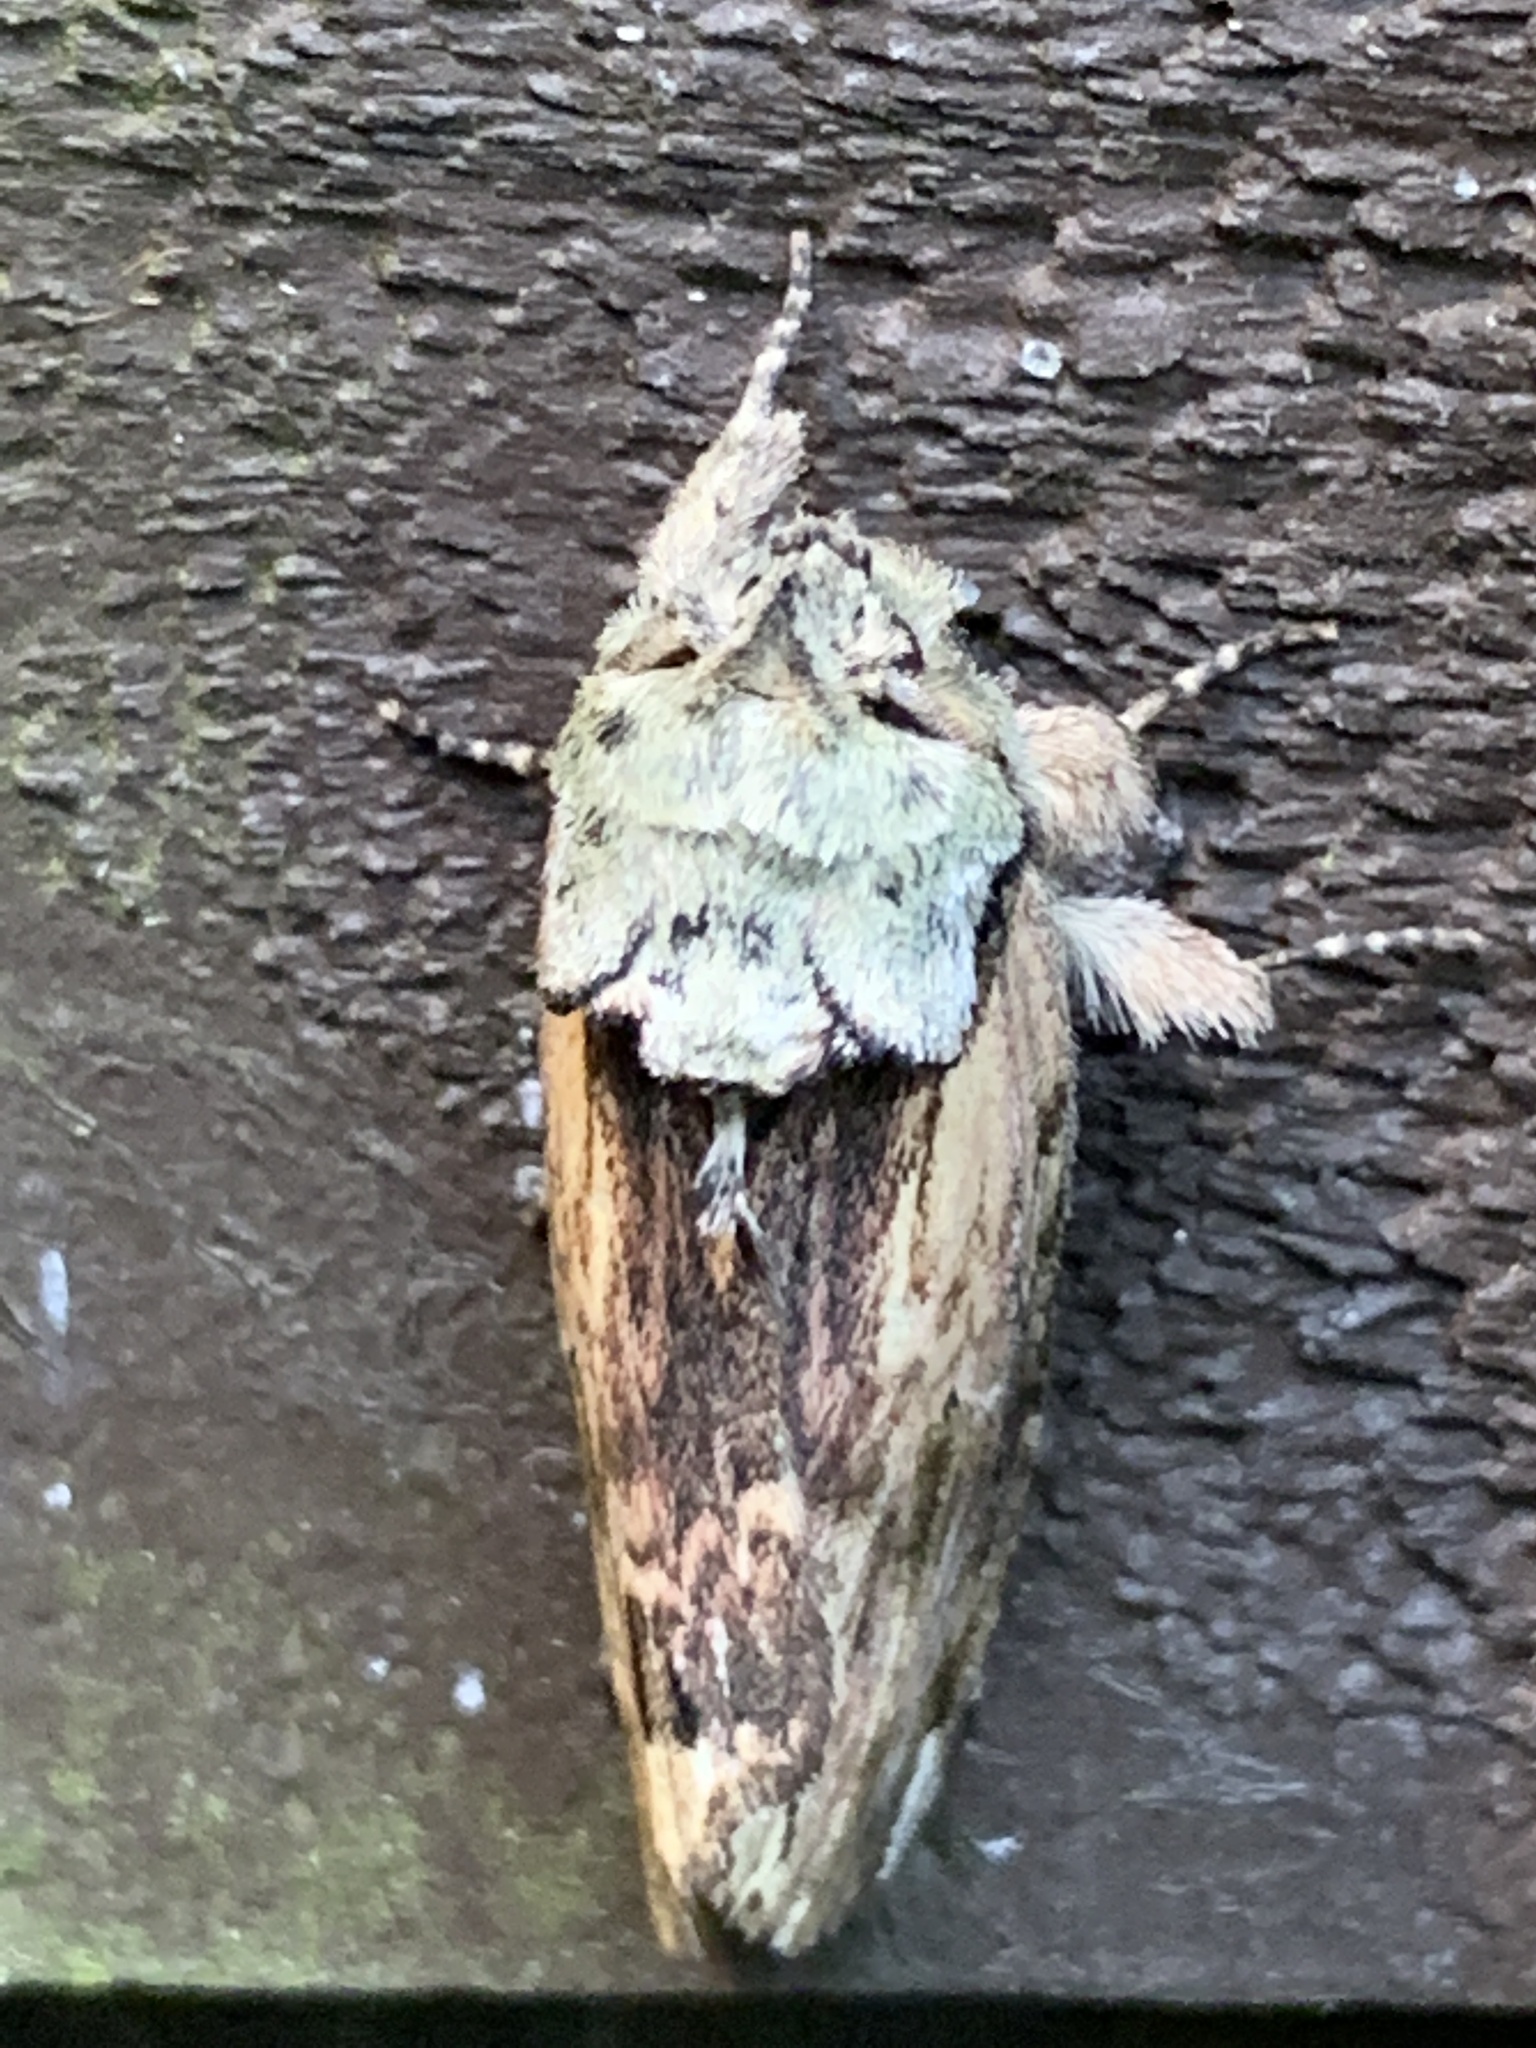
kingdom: Animalia
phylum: Arthropoda
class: Insecta
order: Lepidoptera
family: Notodontidae
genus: Schizura
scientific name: Schizura
